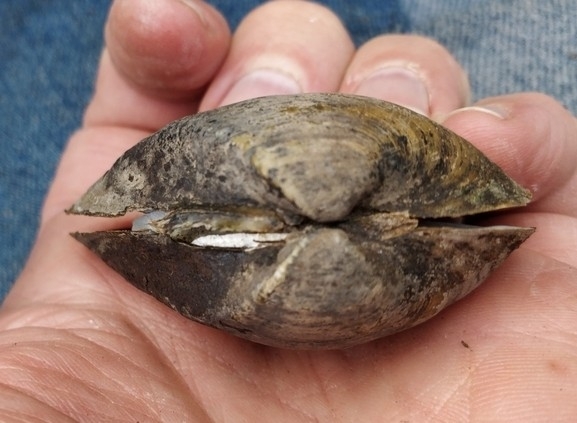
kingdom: Animalia
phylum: Mollusca
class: Bivalvia
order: Unionida
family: Unionidae
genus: Truncilla
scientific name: Truncilla truncata
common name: Deertoe
